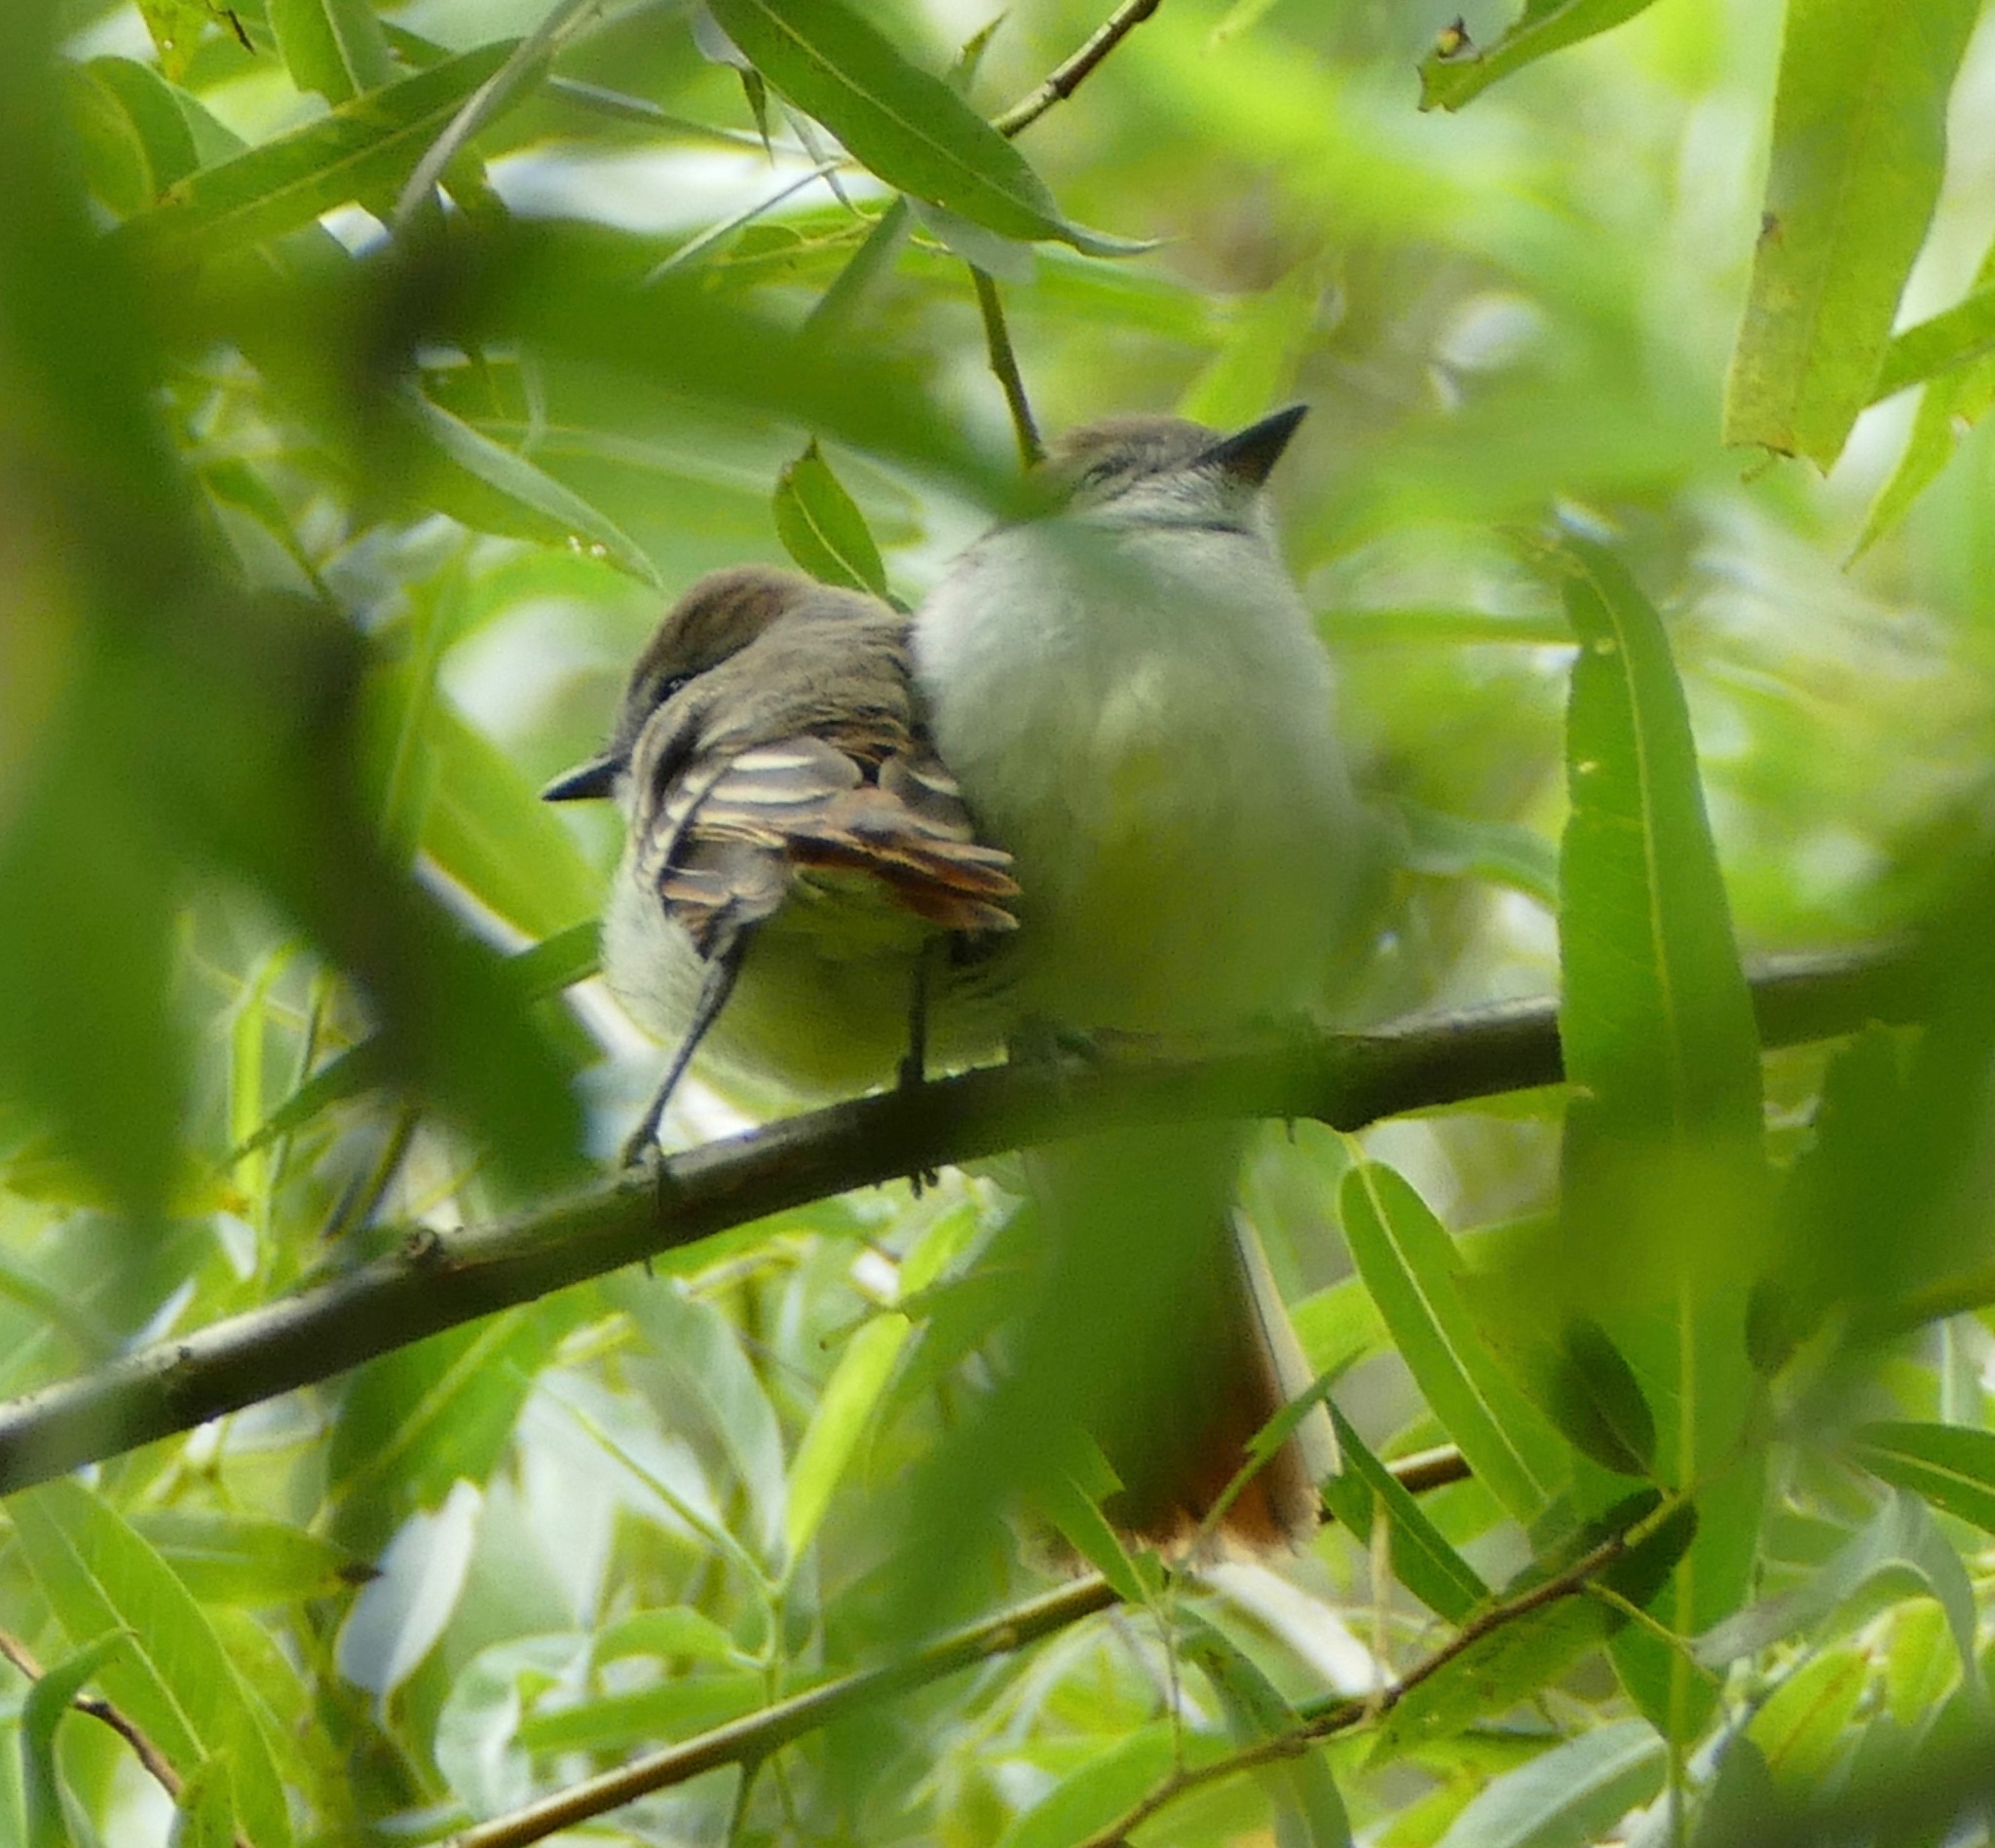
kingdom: Animalia
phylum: Chordata
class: Aves
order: Passeriformes
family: Tyrannidae
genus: Myiarchus
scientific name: Myiarchus cinerascens
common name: Ash-throated flycatcher
